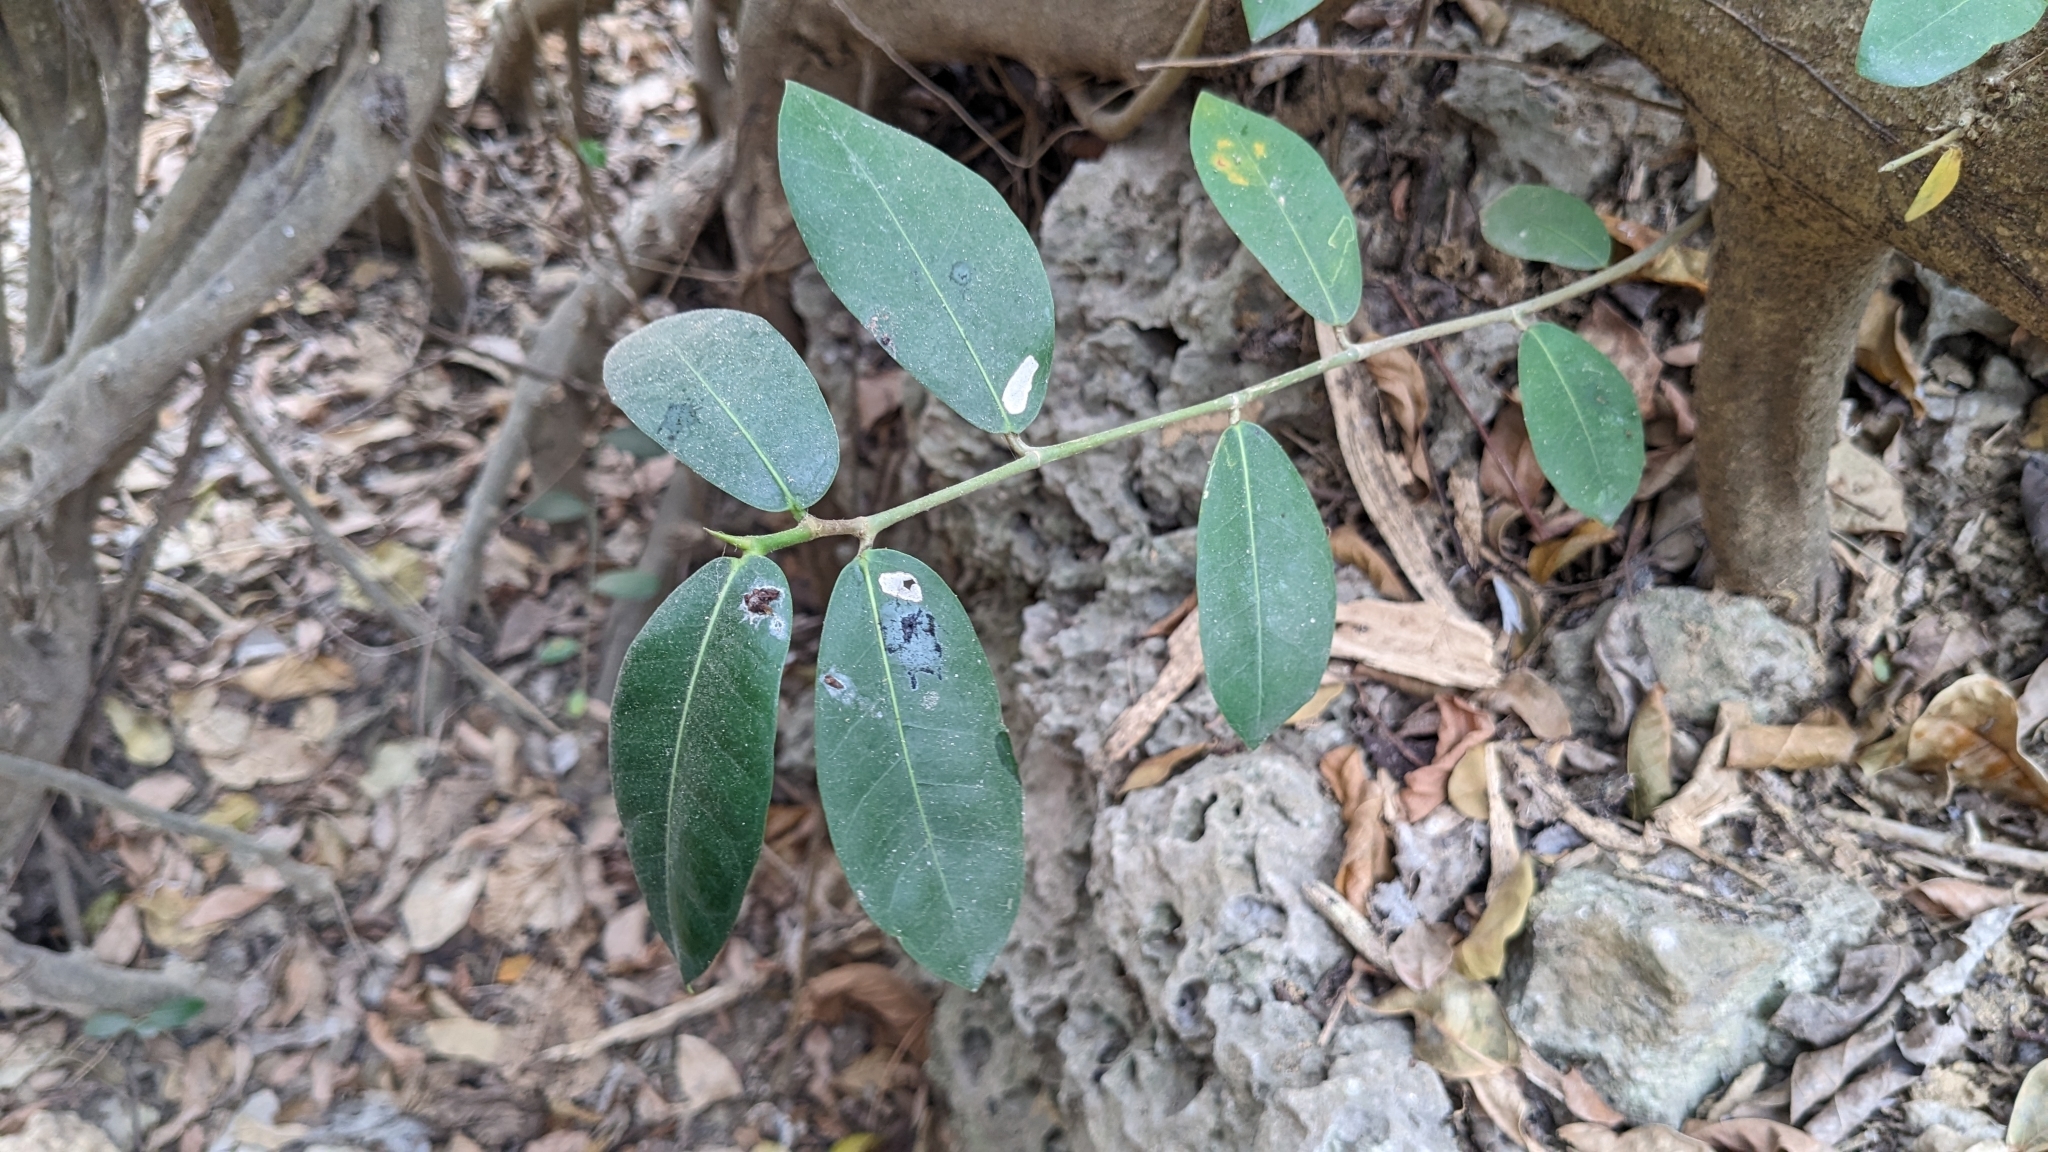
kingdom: Plantae
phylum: Tracheophyta
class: Magnoliopsida
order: Rosales
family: Moraceae
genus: Ficus
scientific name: Ficus tinctoria
